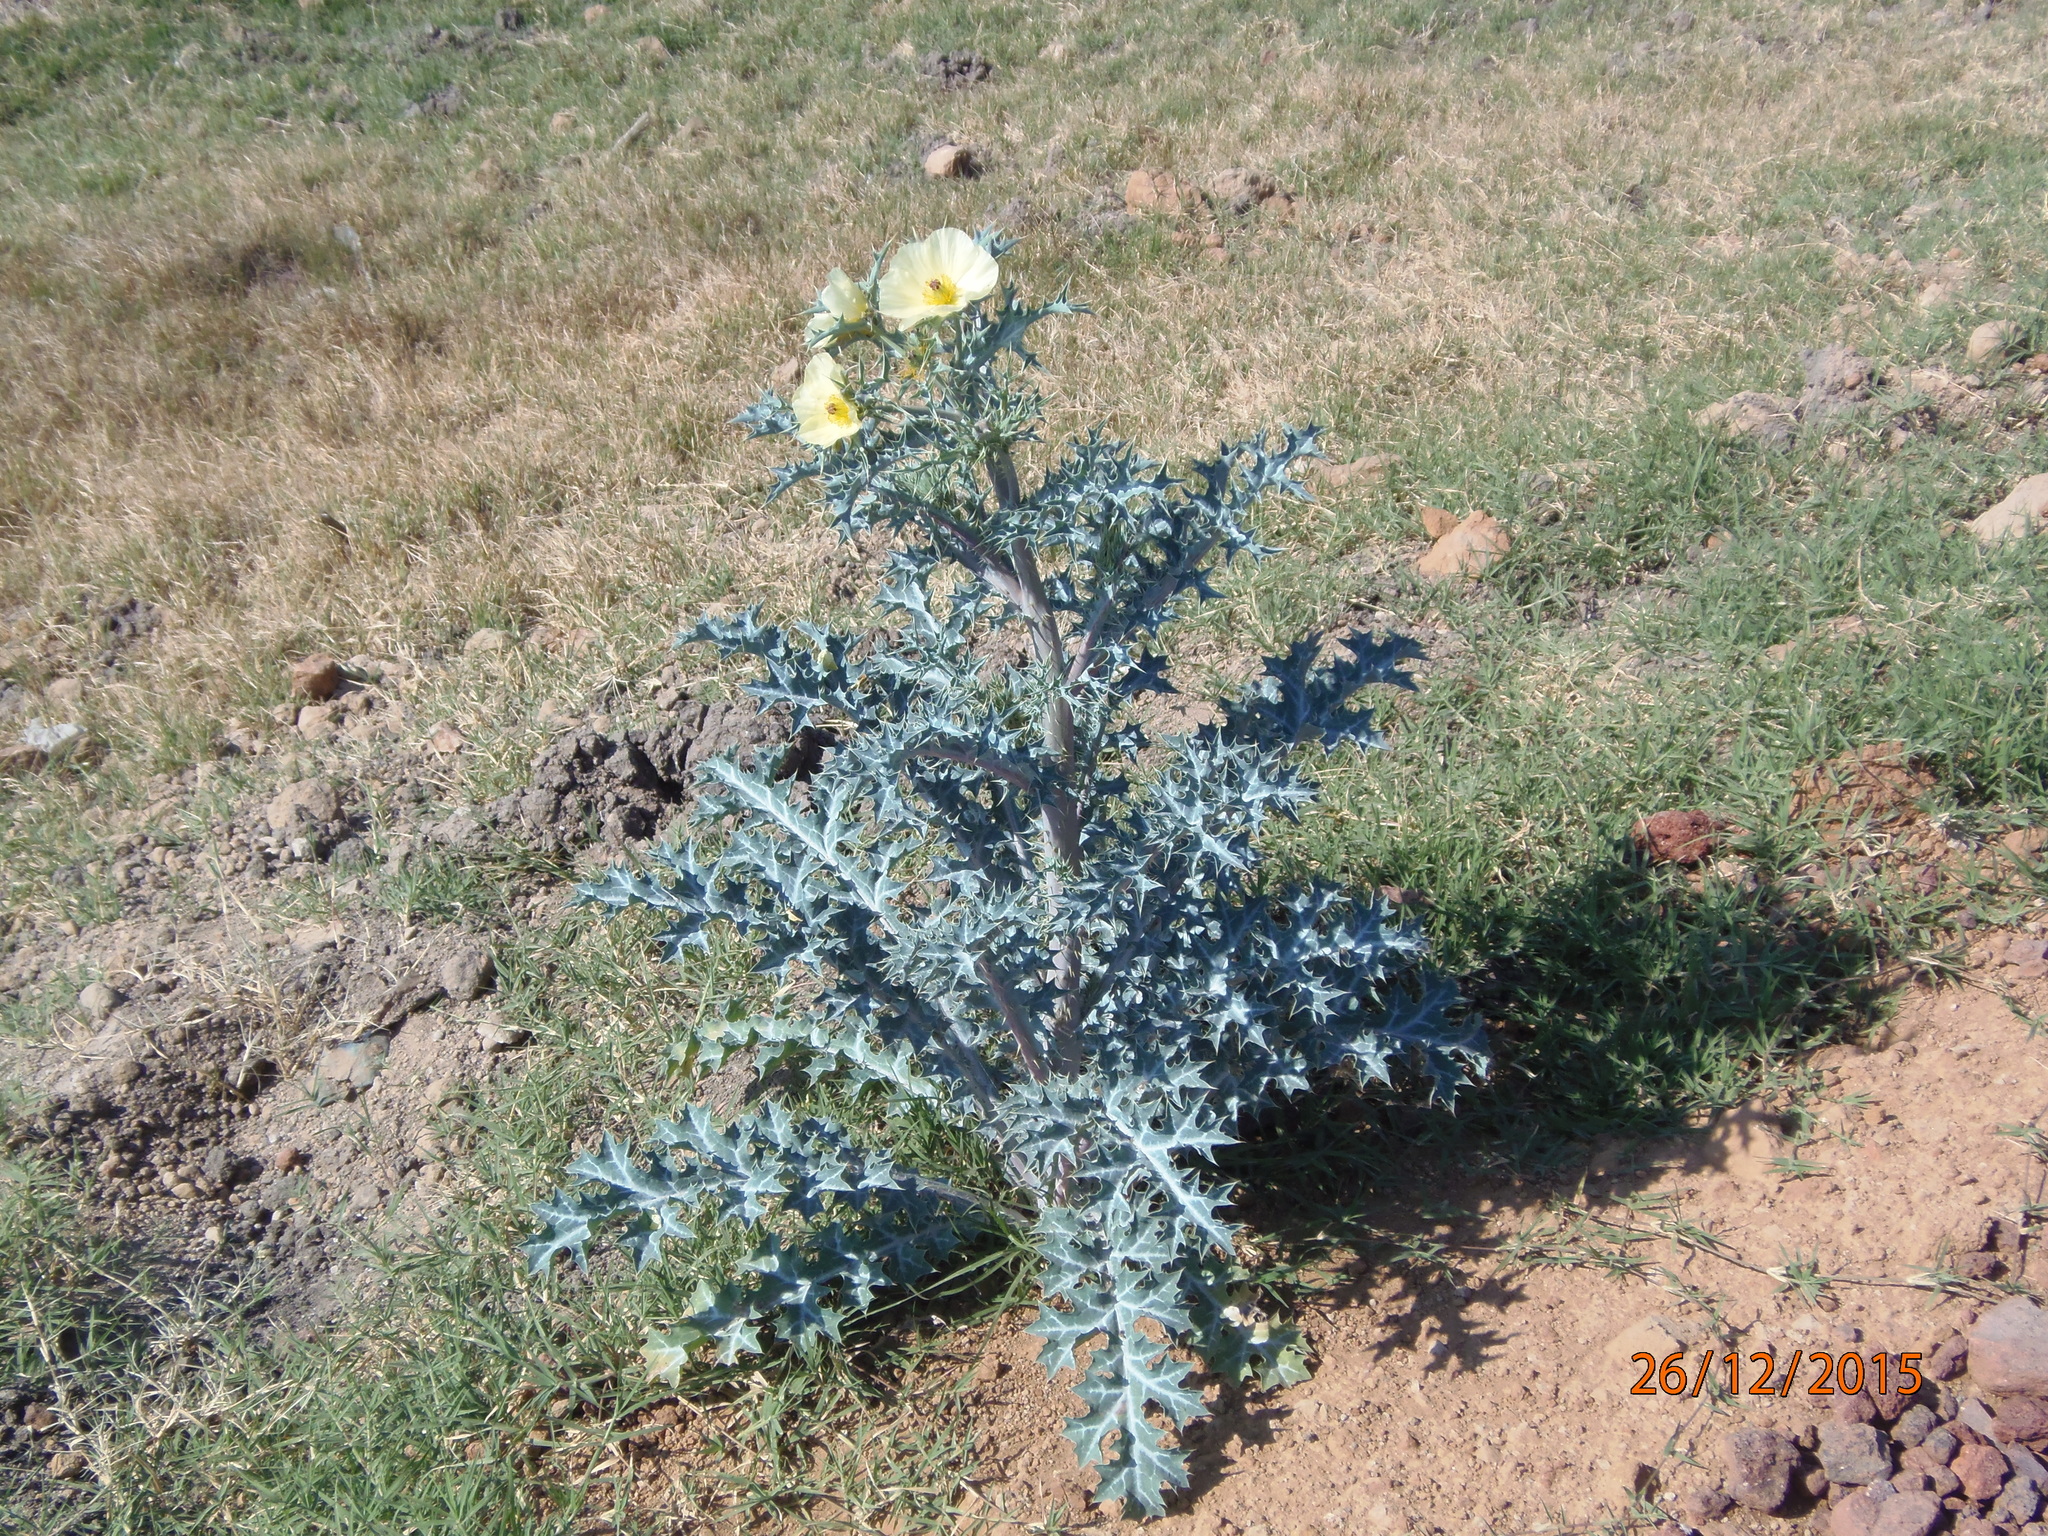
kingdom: Plantae
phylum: Tracheophyta
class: Magnoliopsida
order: Ranunculales
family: Papaveraceae
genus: Argemone
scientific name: Argemone ochroleuca
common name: White-flower mexican-poppy
